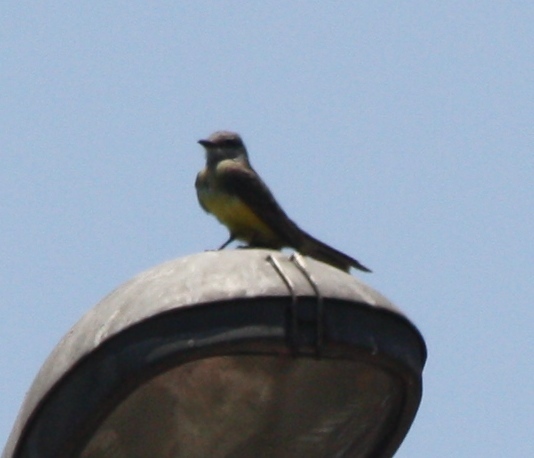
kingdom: Animalia
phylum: Chordata
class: Aves
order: Passeriformes
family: Tyrannidae
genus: Tyrannus
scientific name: Tyrannus melancholicus
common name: Tropical kingbird
